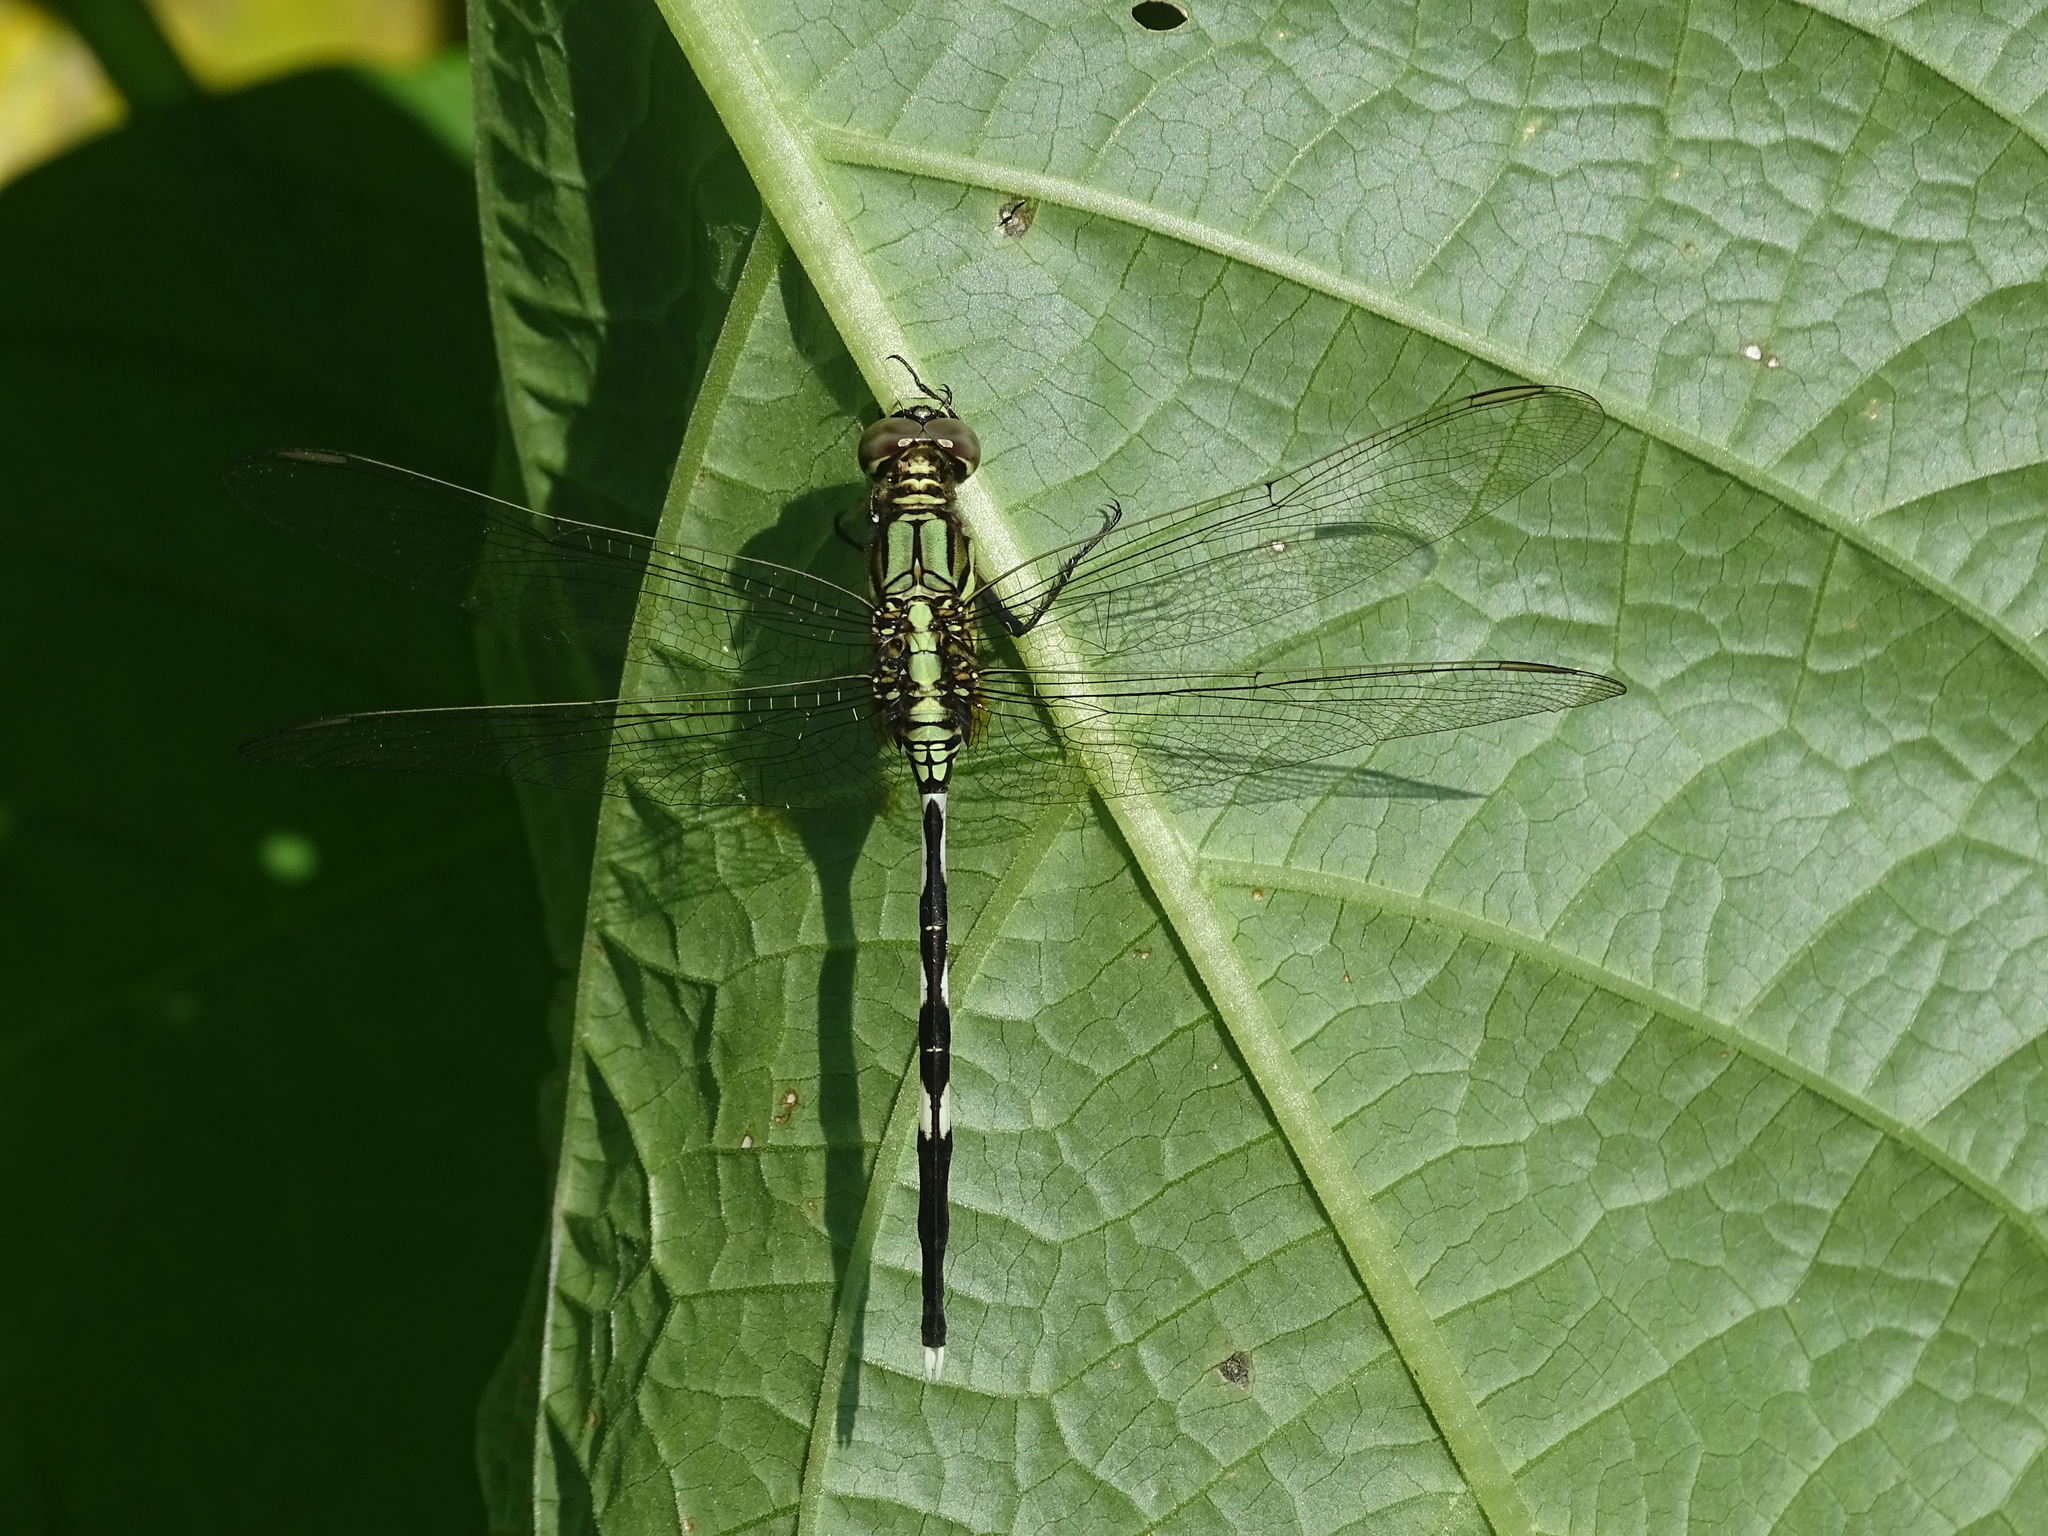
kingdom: Animalia
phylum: Arthropoda
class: Insecta
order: Odonata
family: Libellulidae
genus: Orthetrum
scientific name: Orthetrum sabina
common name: Slender skimmer
